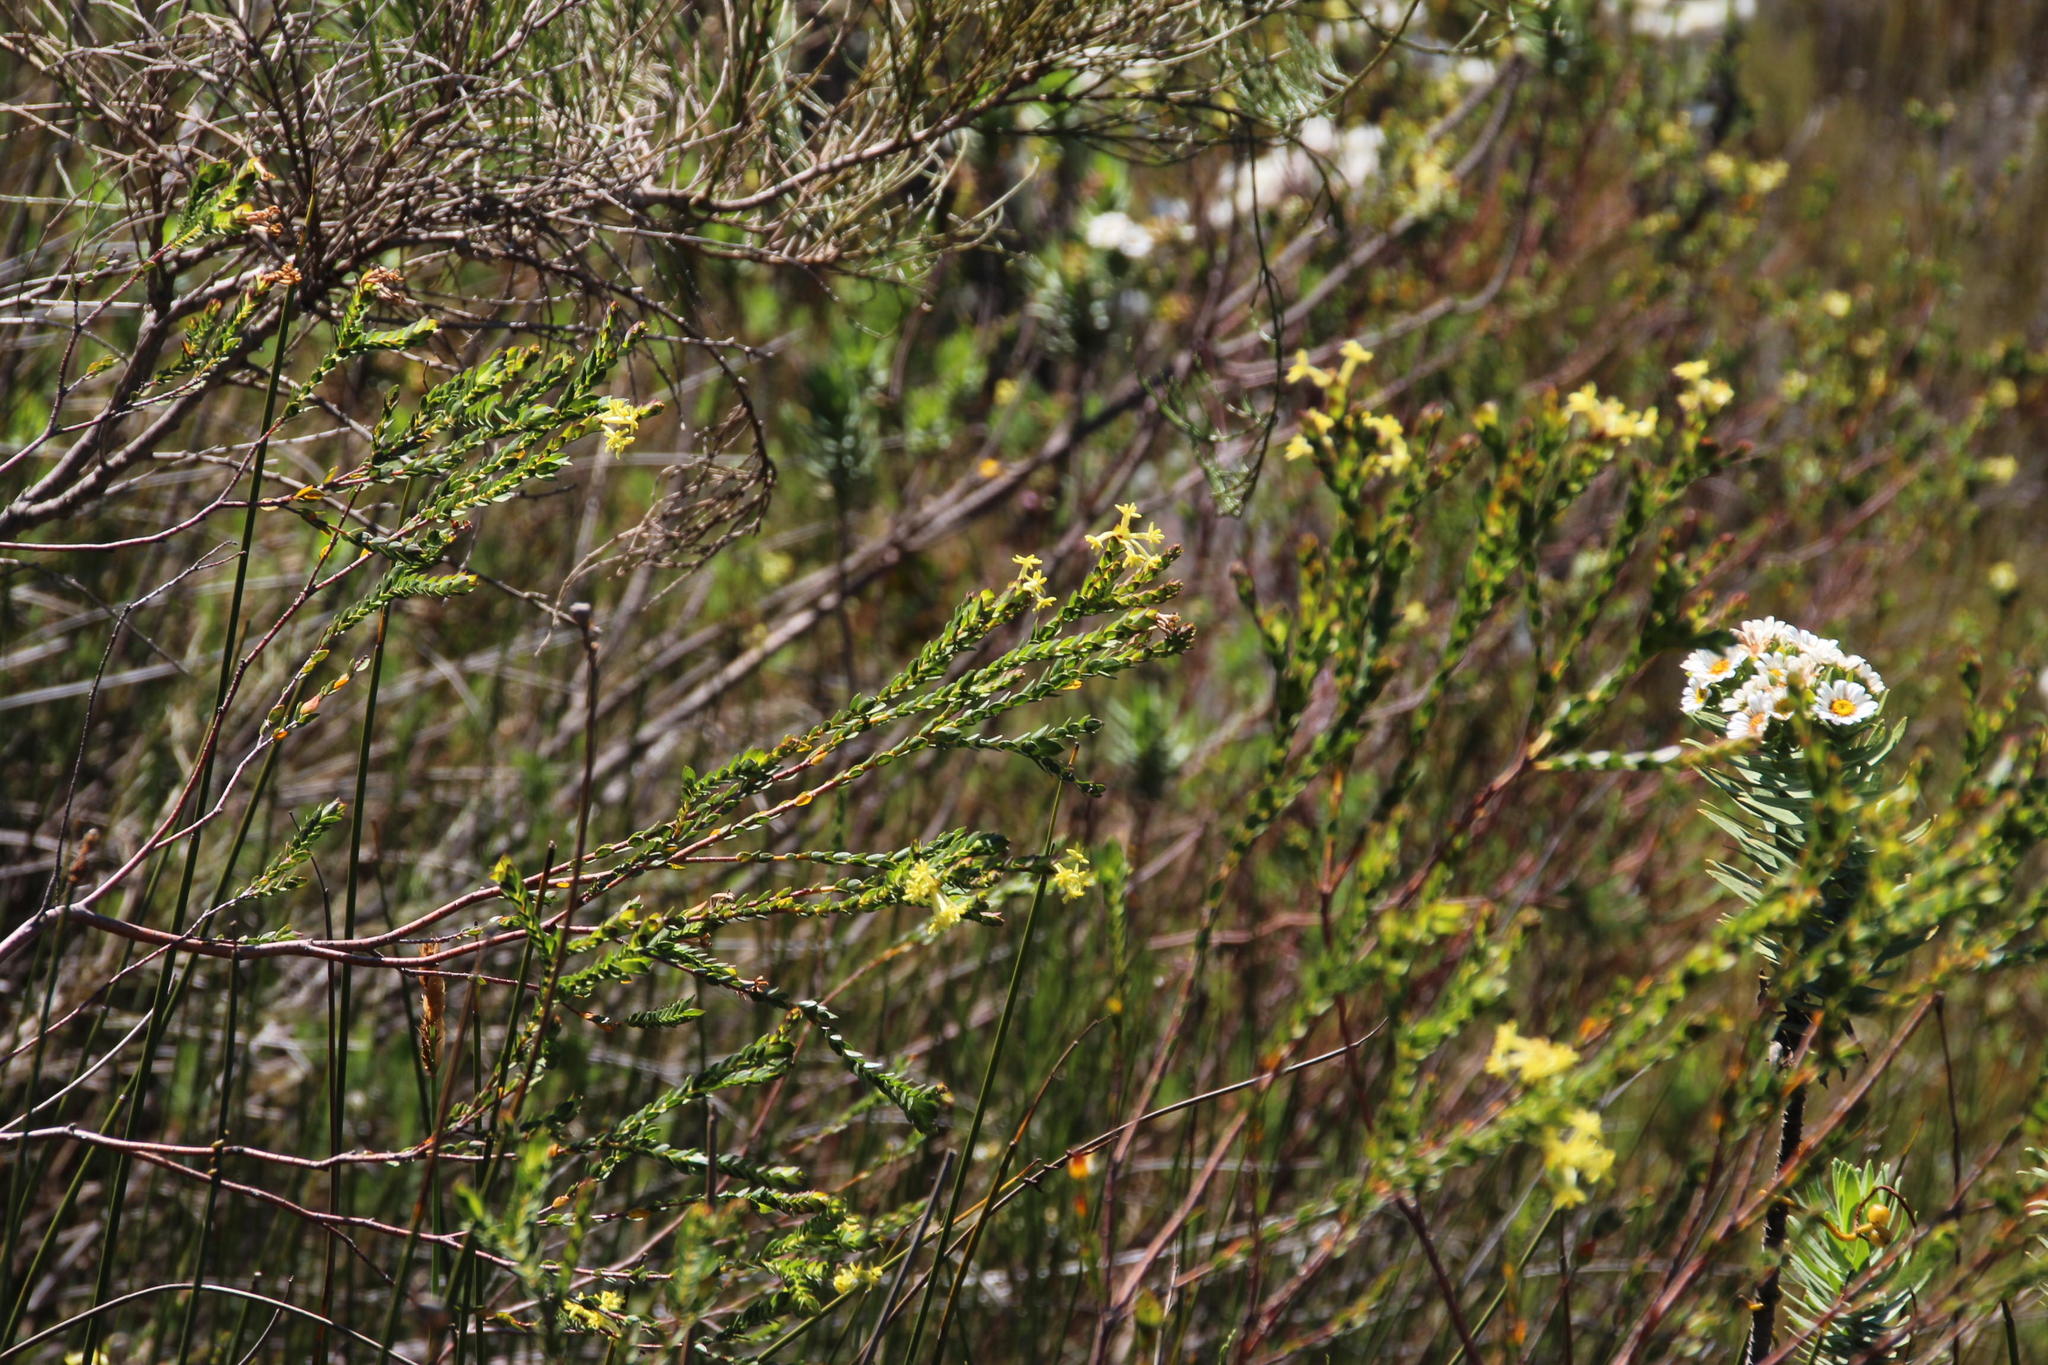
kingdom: Plantae
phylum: Tracheophyta
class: Magnoliopsida
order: Malvales
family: Thymelaeaceae
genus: Gnidia
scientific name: Gnidia oppositifolia
